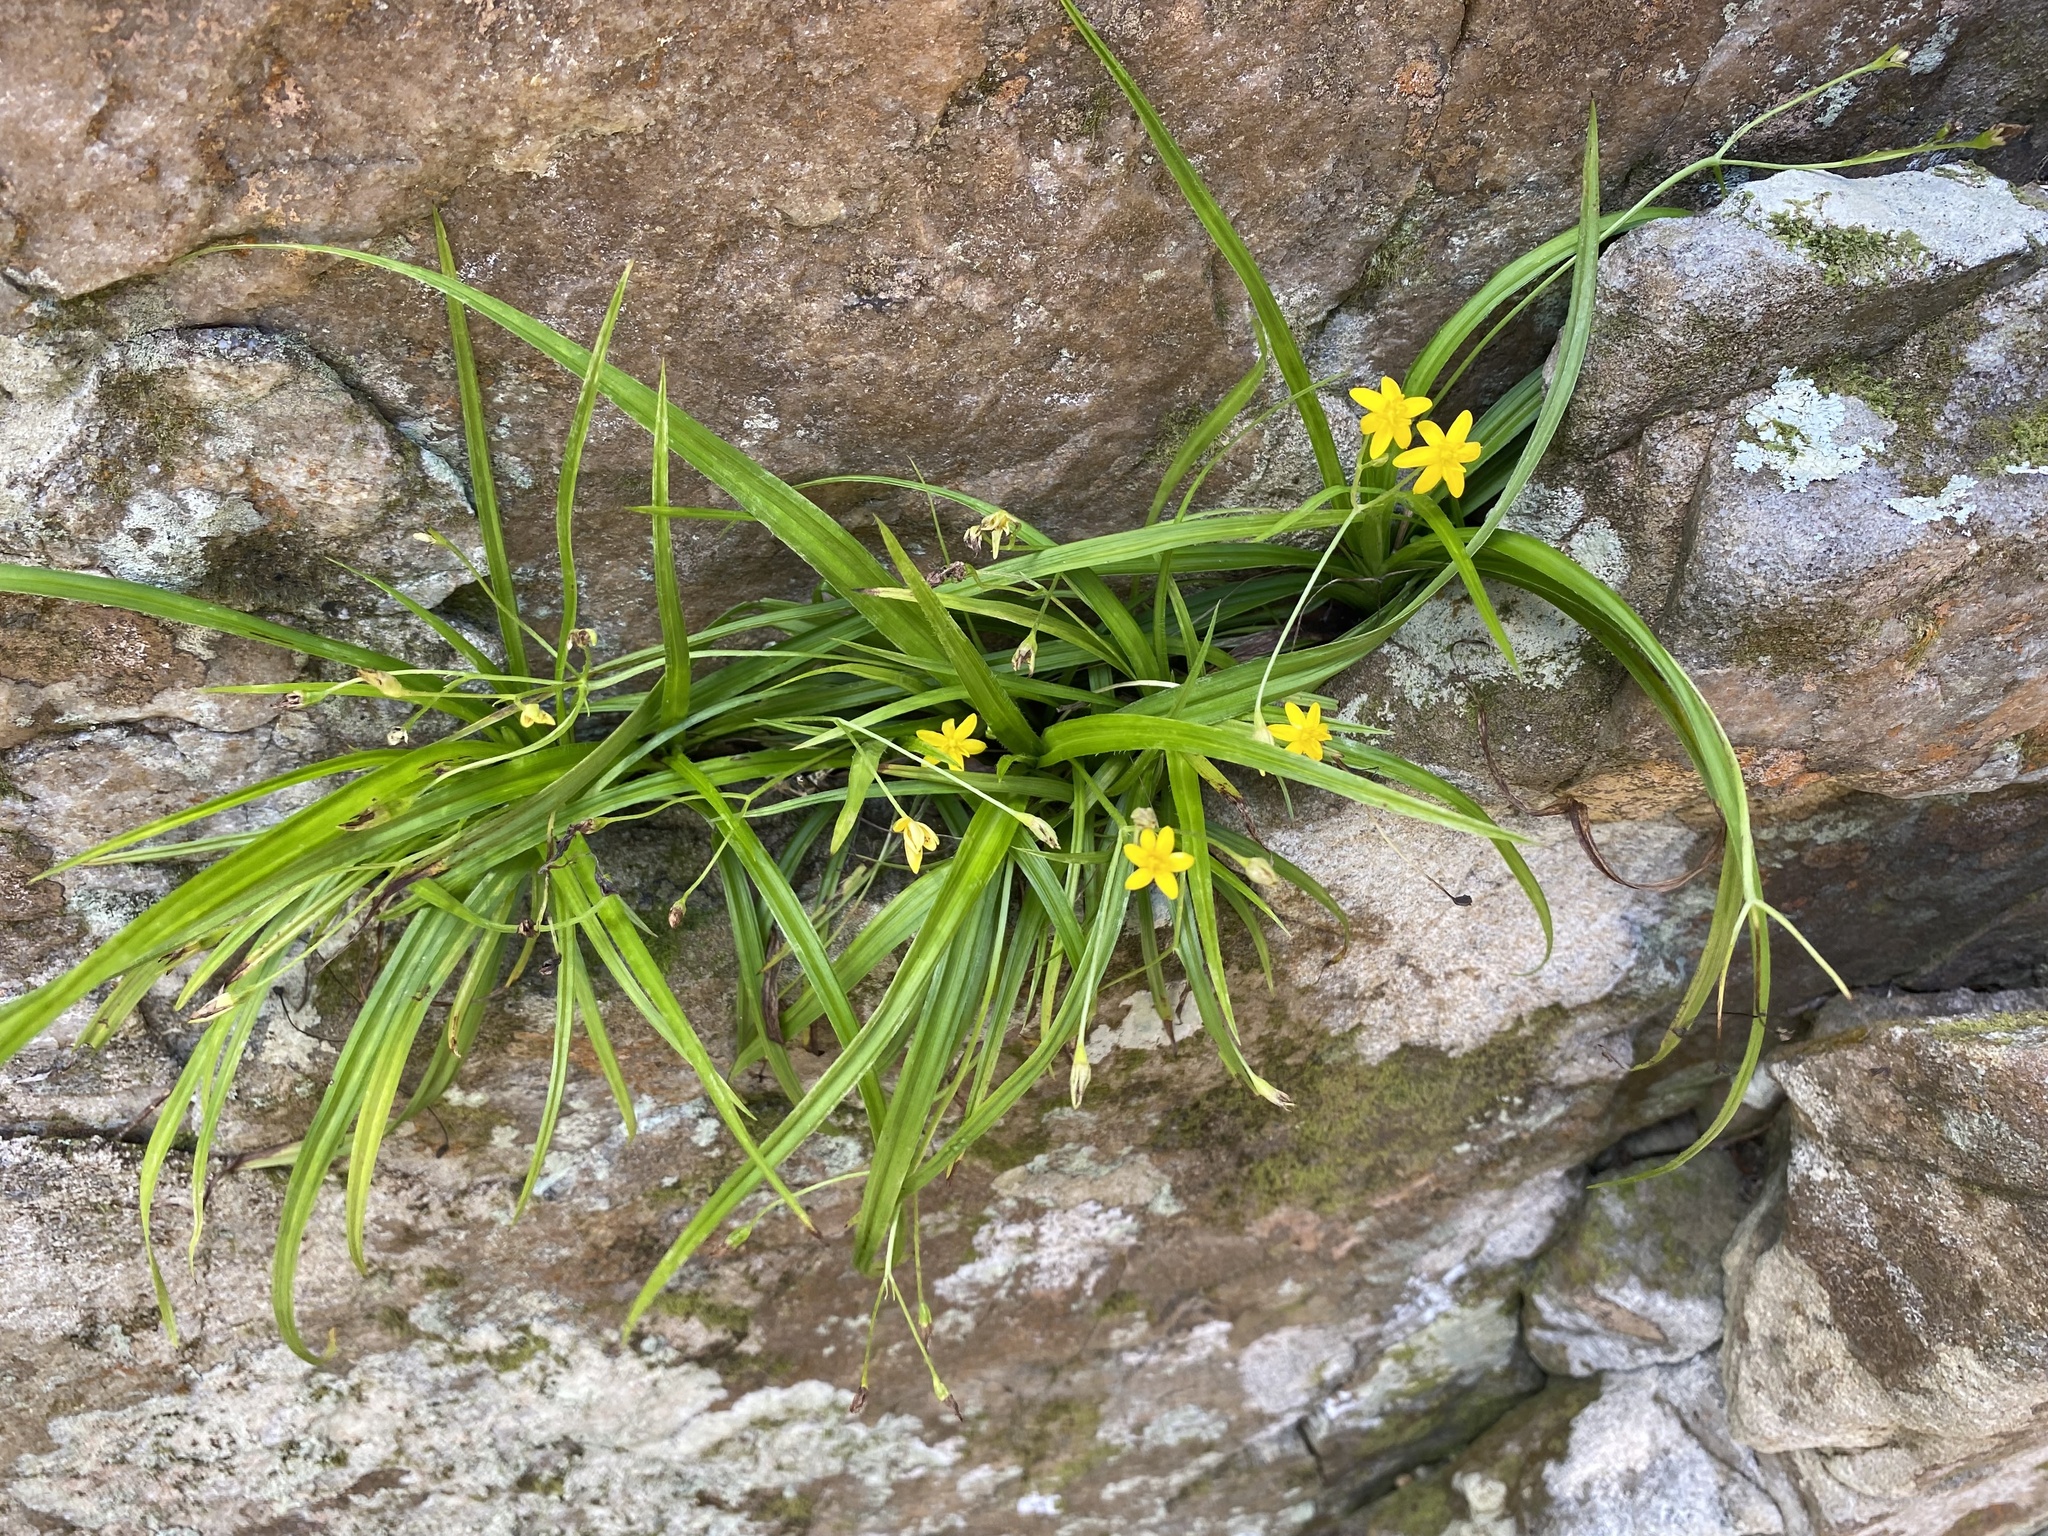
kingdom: Plantae
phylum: Tracheophyta
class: Liliopsida
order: Asparagales
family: Hypoxidaceae
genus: Hypoxis
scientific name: Hypoxis angustifolia
